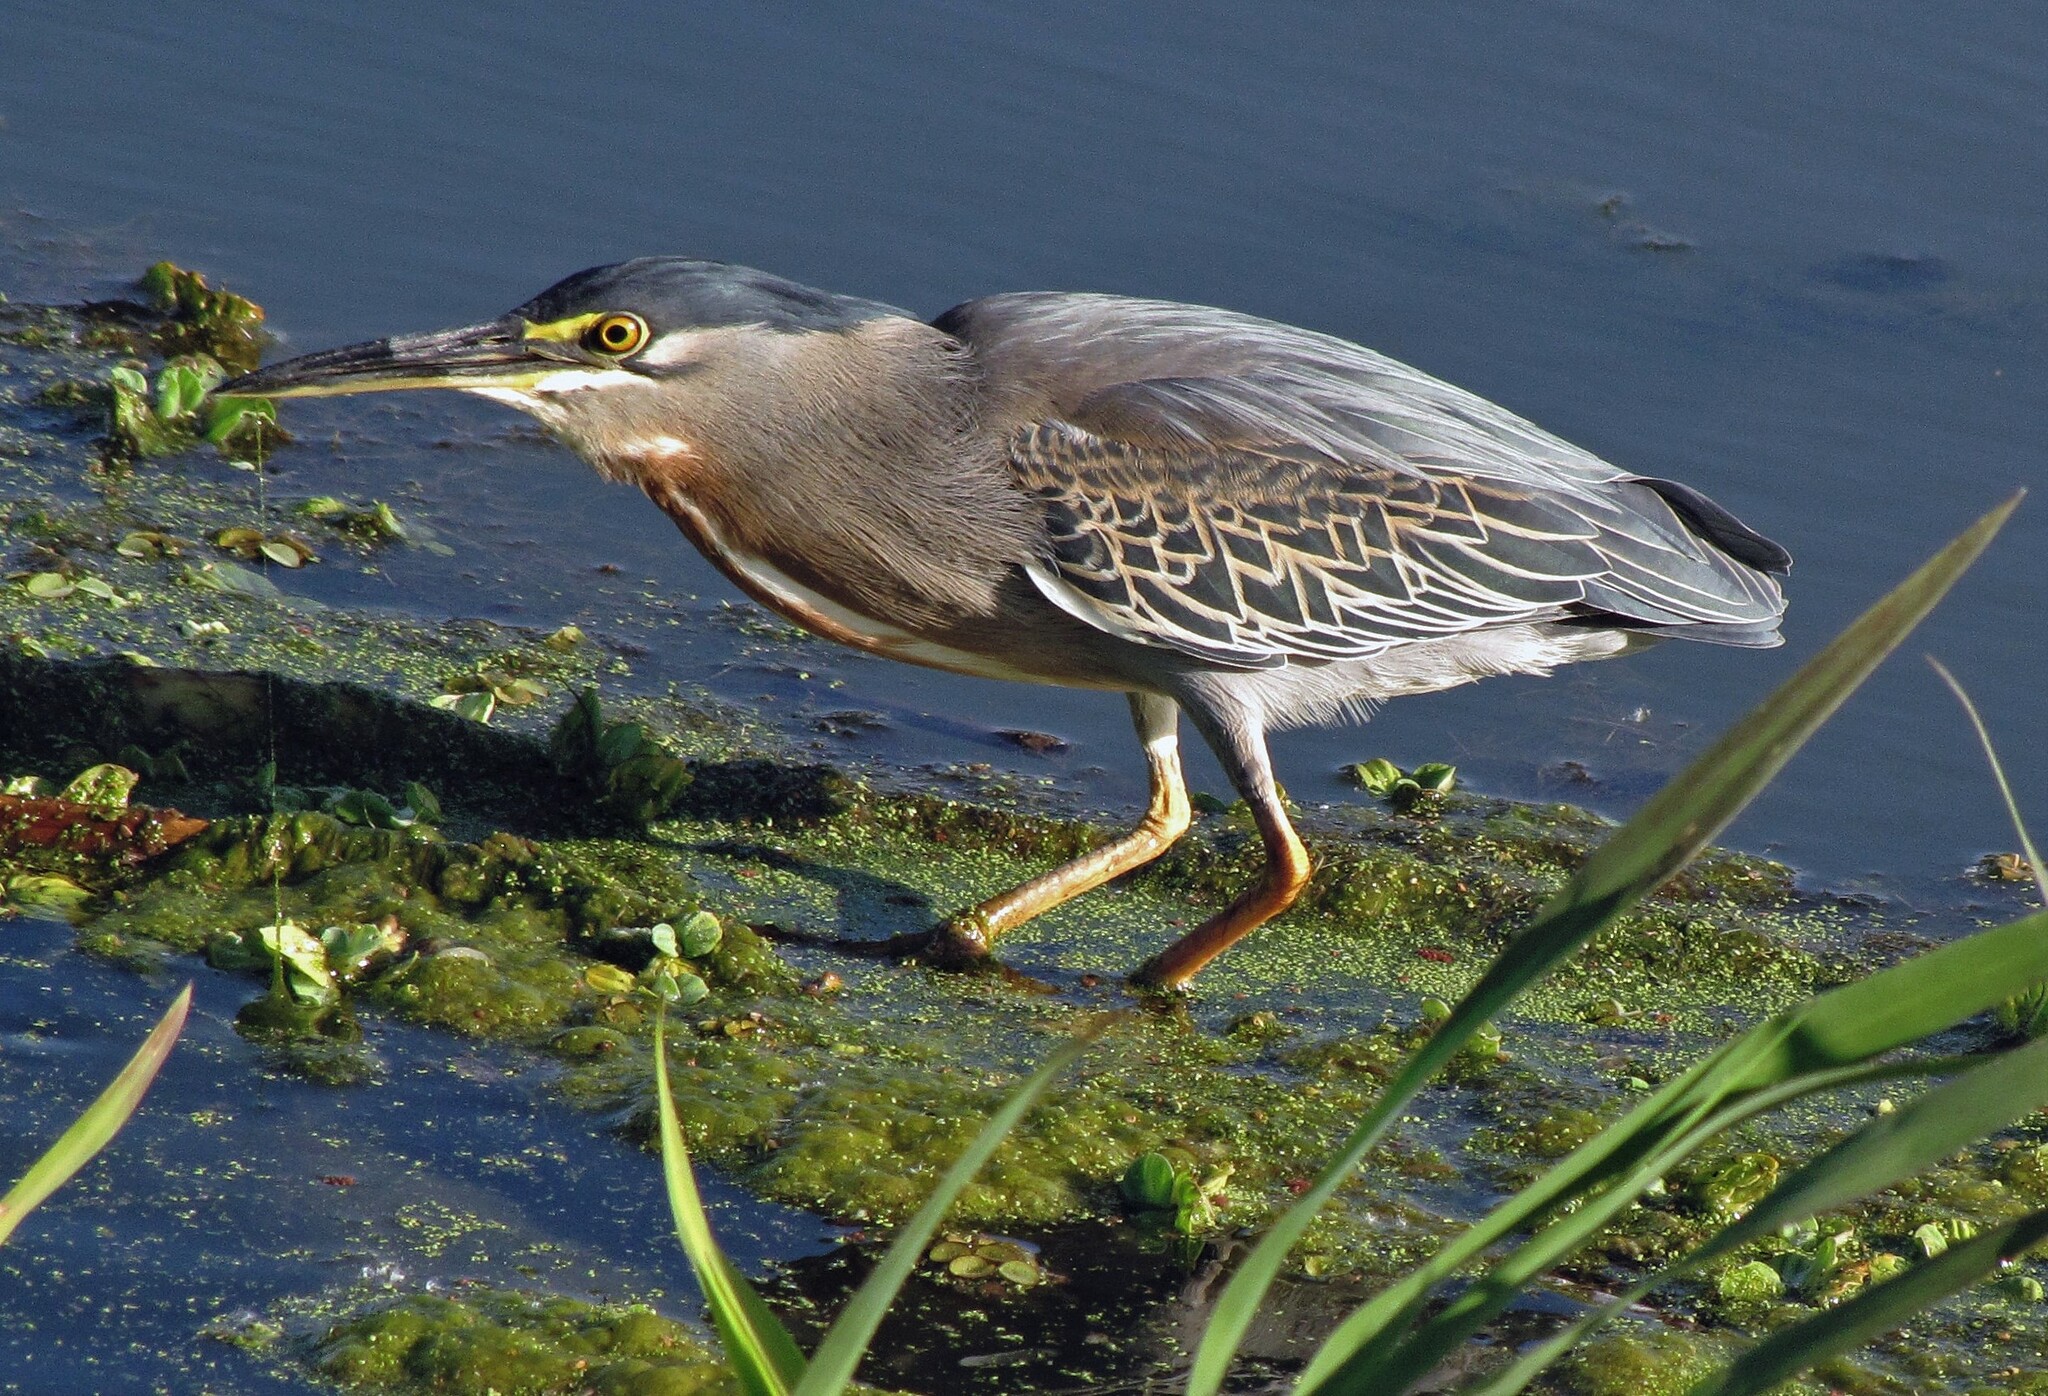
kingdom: Animalia
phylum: Chordata
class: Aves
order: Pelecaniformes
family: Ardeidae
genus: Butorides
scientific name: Butorides striata
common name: Striated heron
